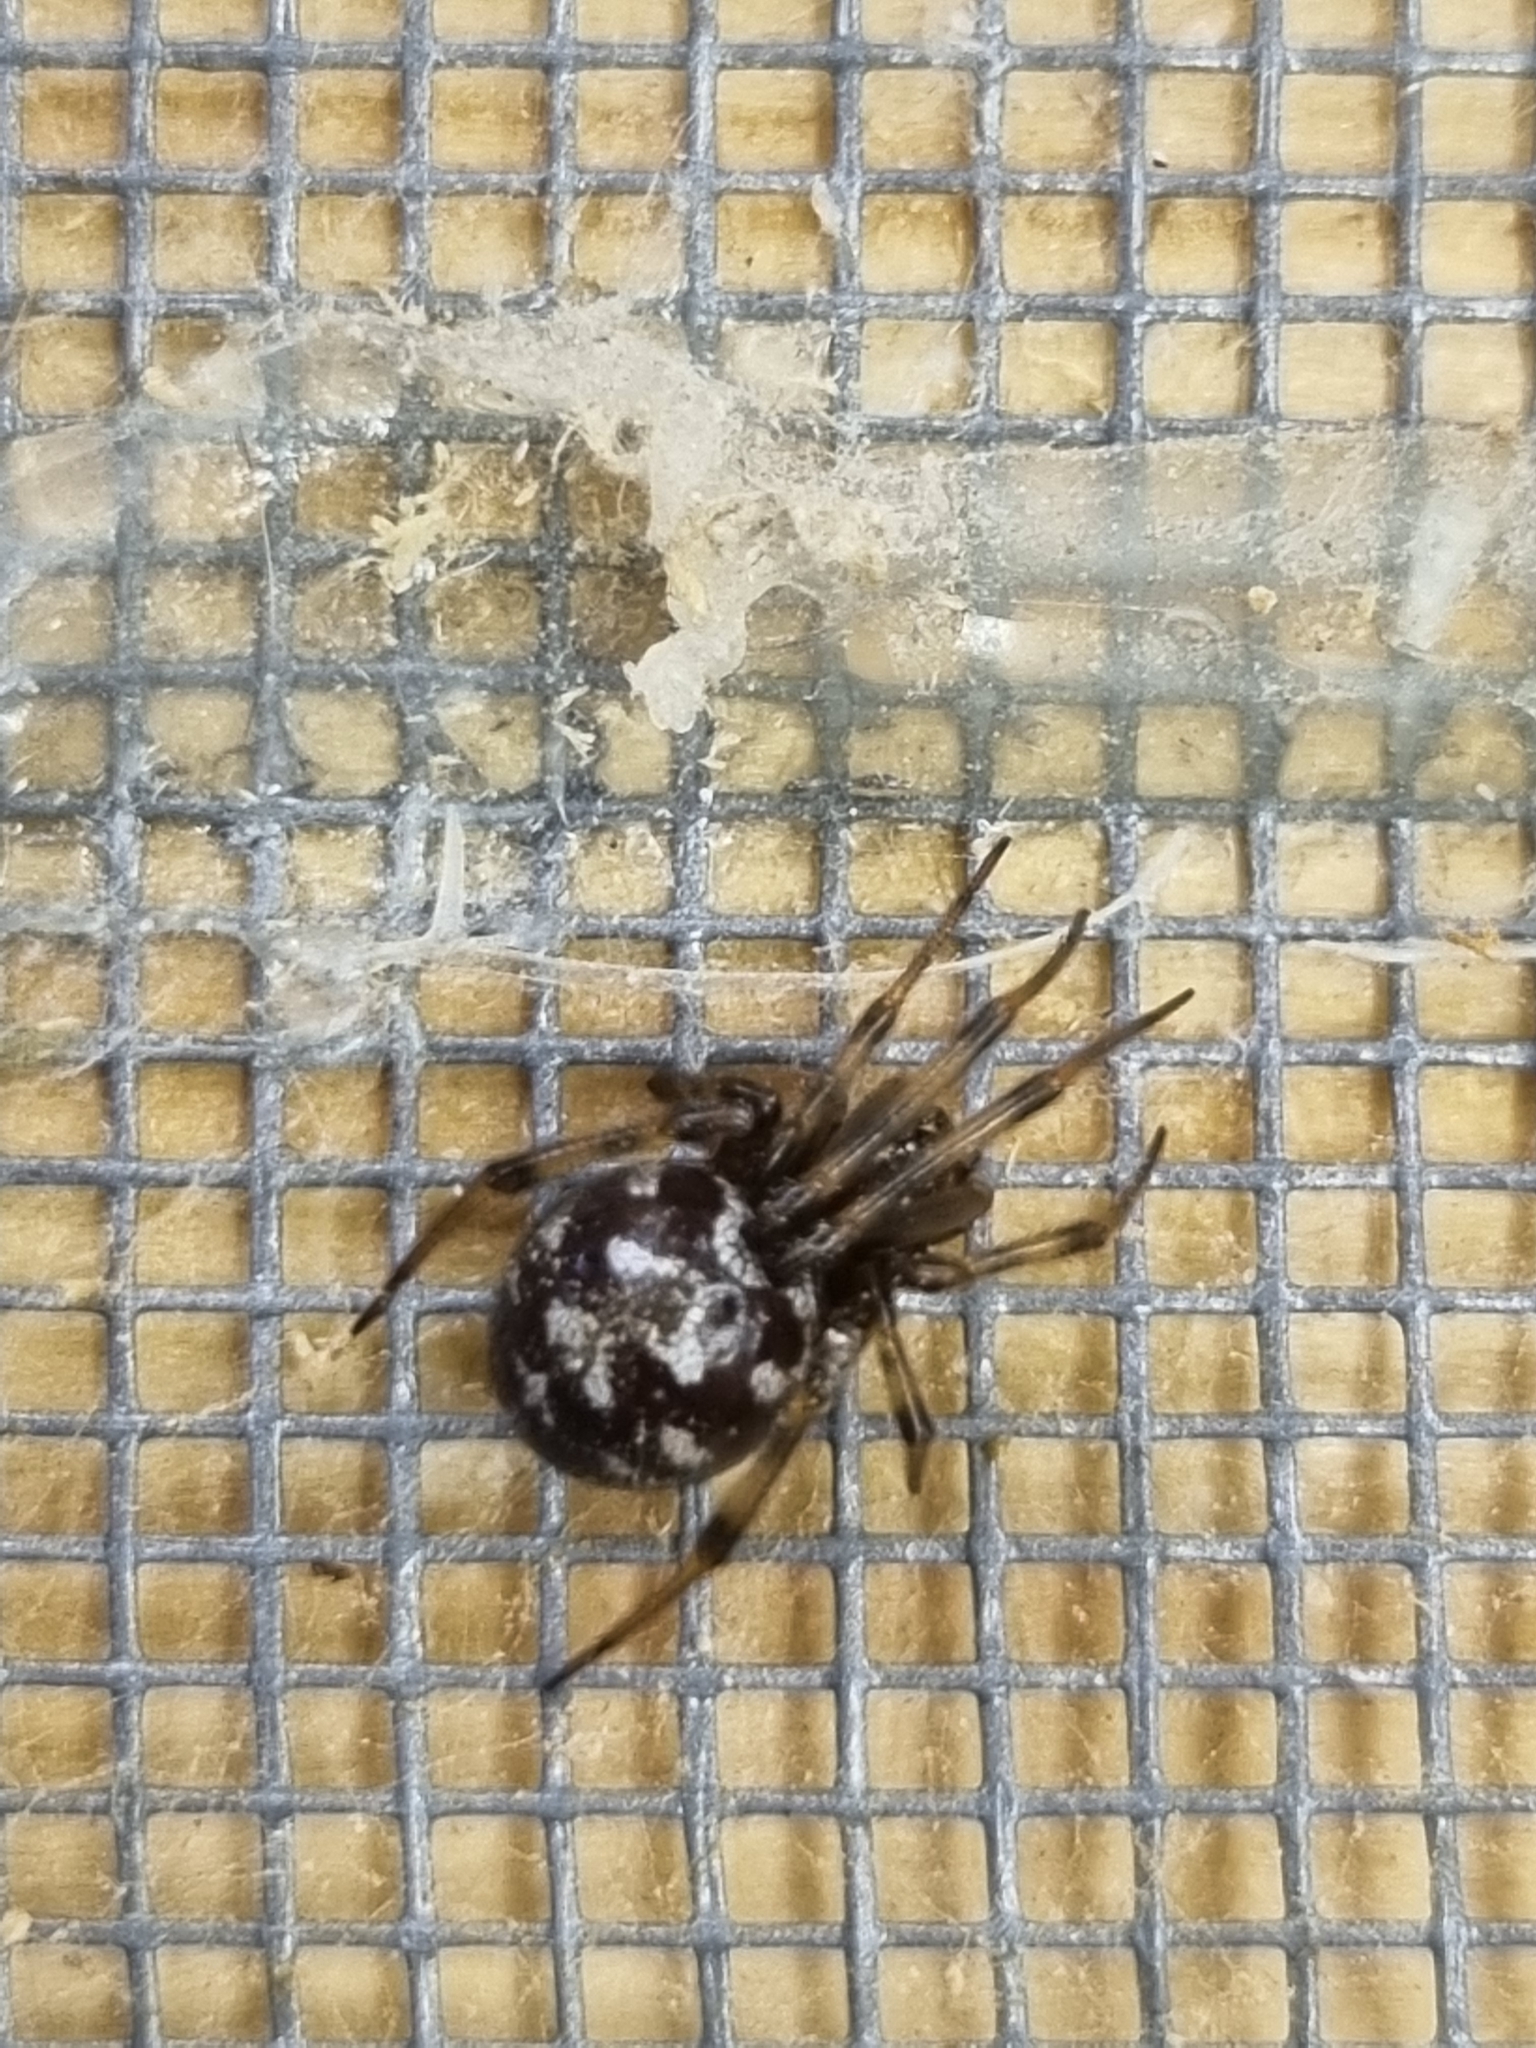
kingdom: Animalia
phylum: Arthropoda
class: Arachnida
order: Araneae
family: Theridiidae
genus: Steatoda
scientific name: Steatoda triangulosa
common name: Triangulate bud spider
